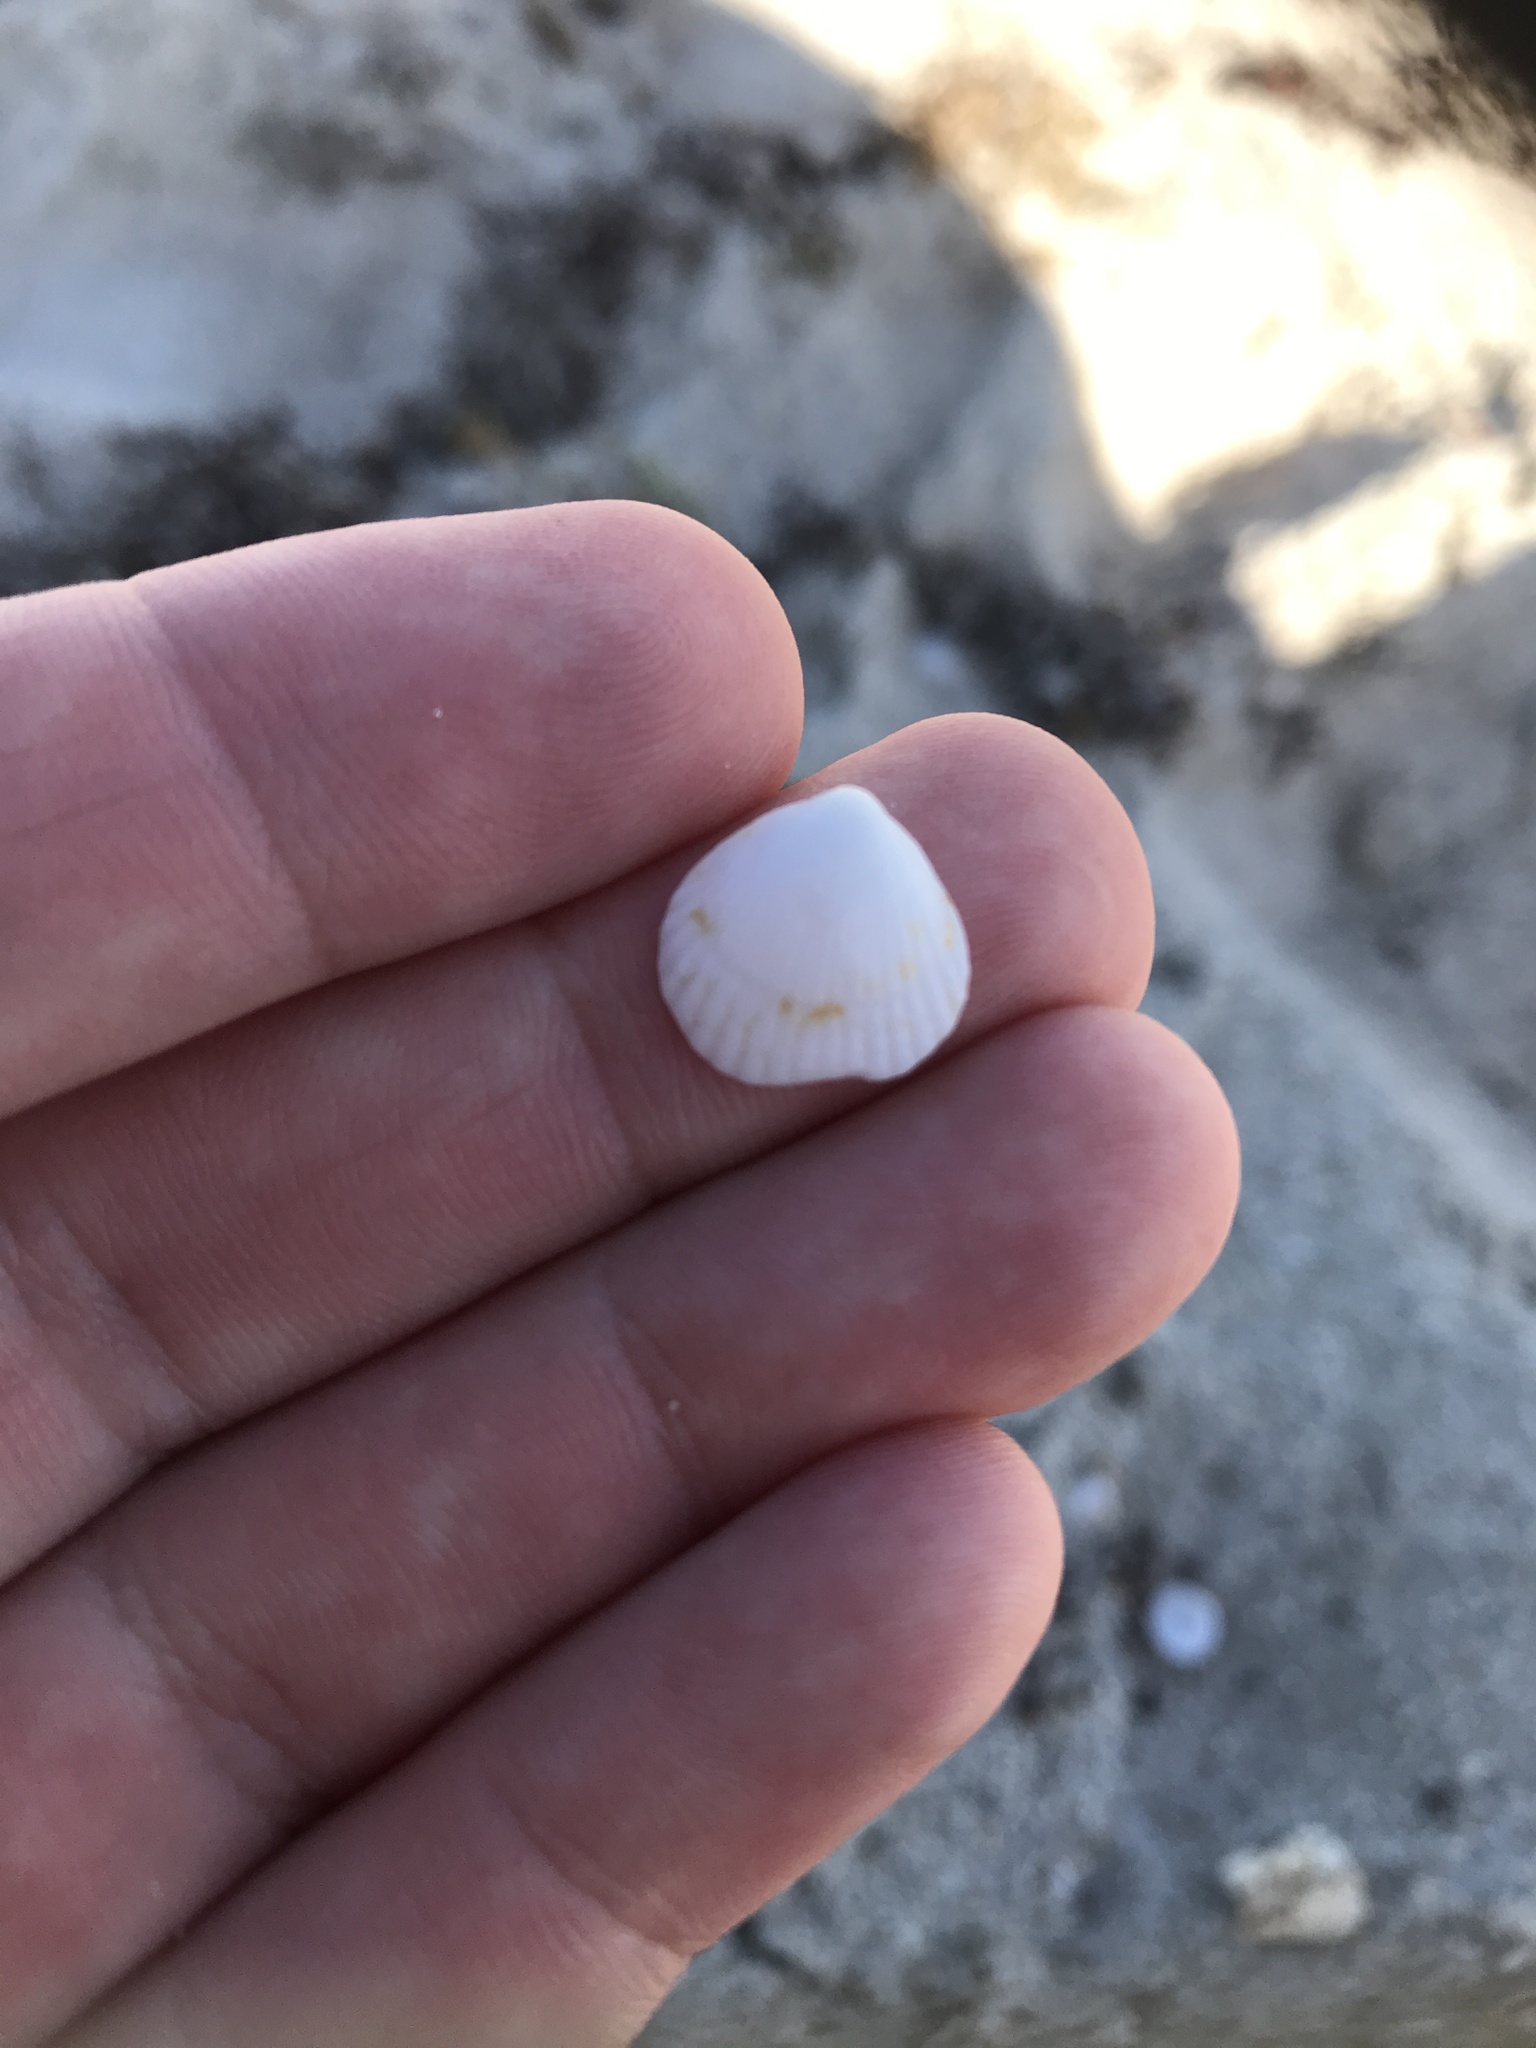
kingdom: Animalia
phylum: Mollusca
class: Bivalvia
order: Arcida
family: Glycymerididae
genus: Tucetona
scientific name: Tucetona pectinata
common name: Comb bittersweet
